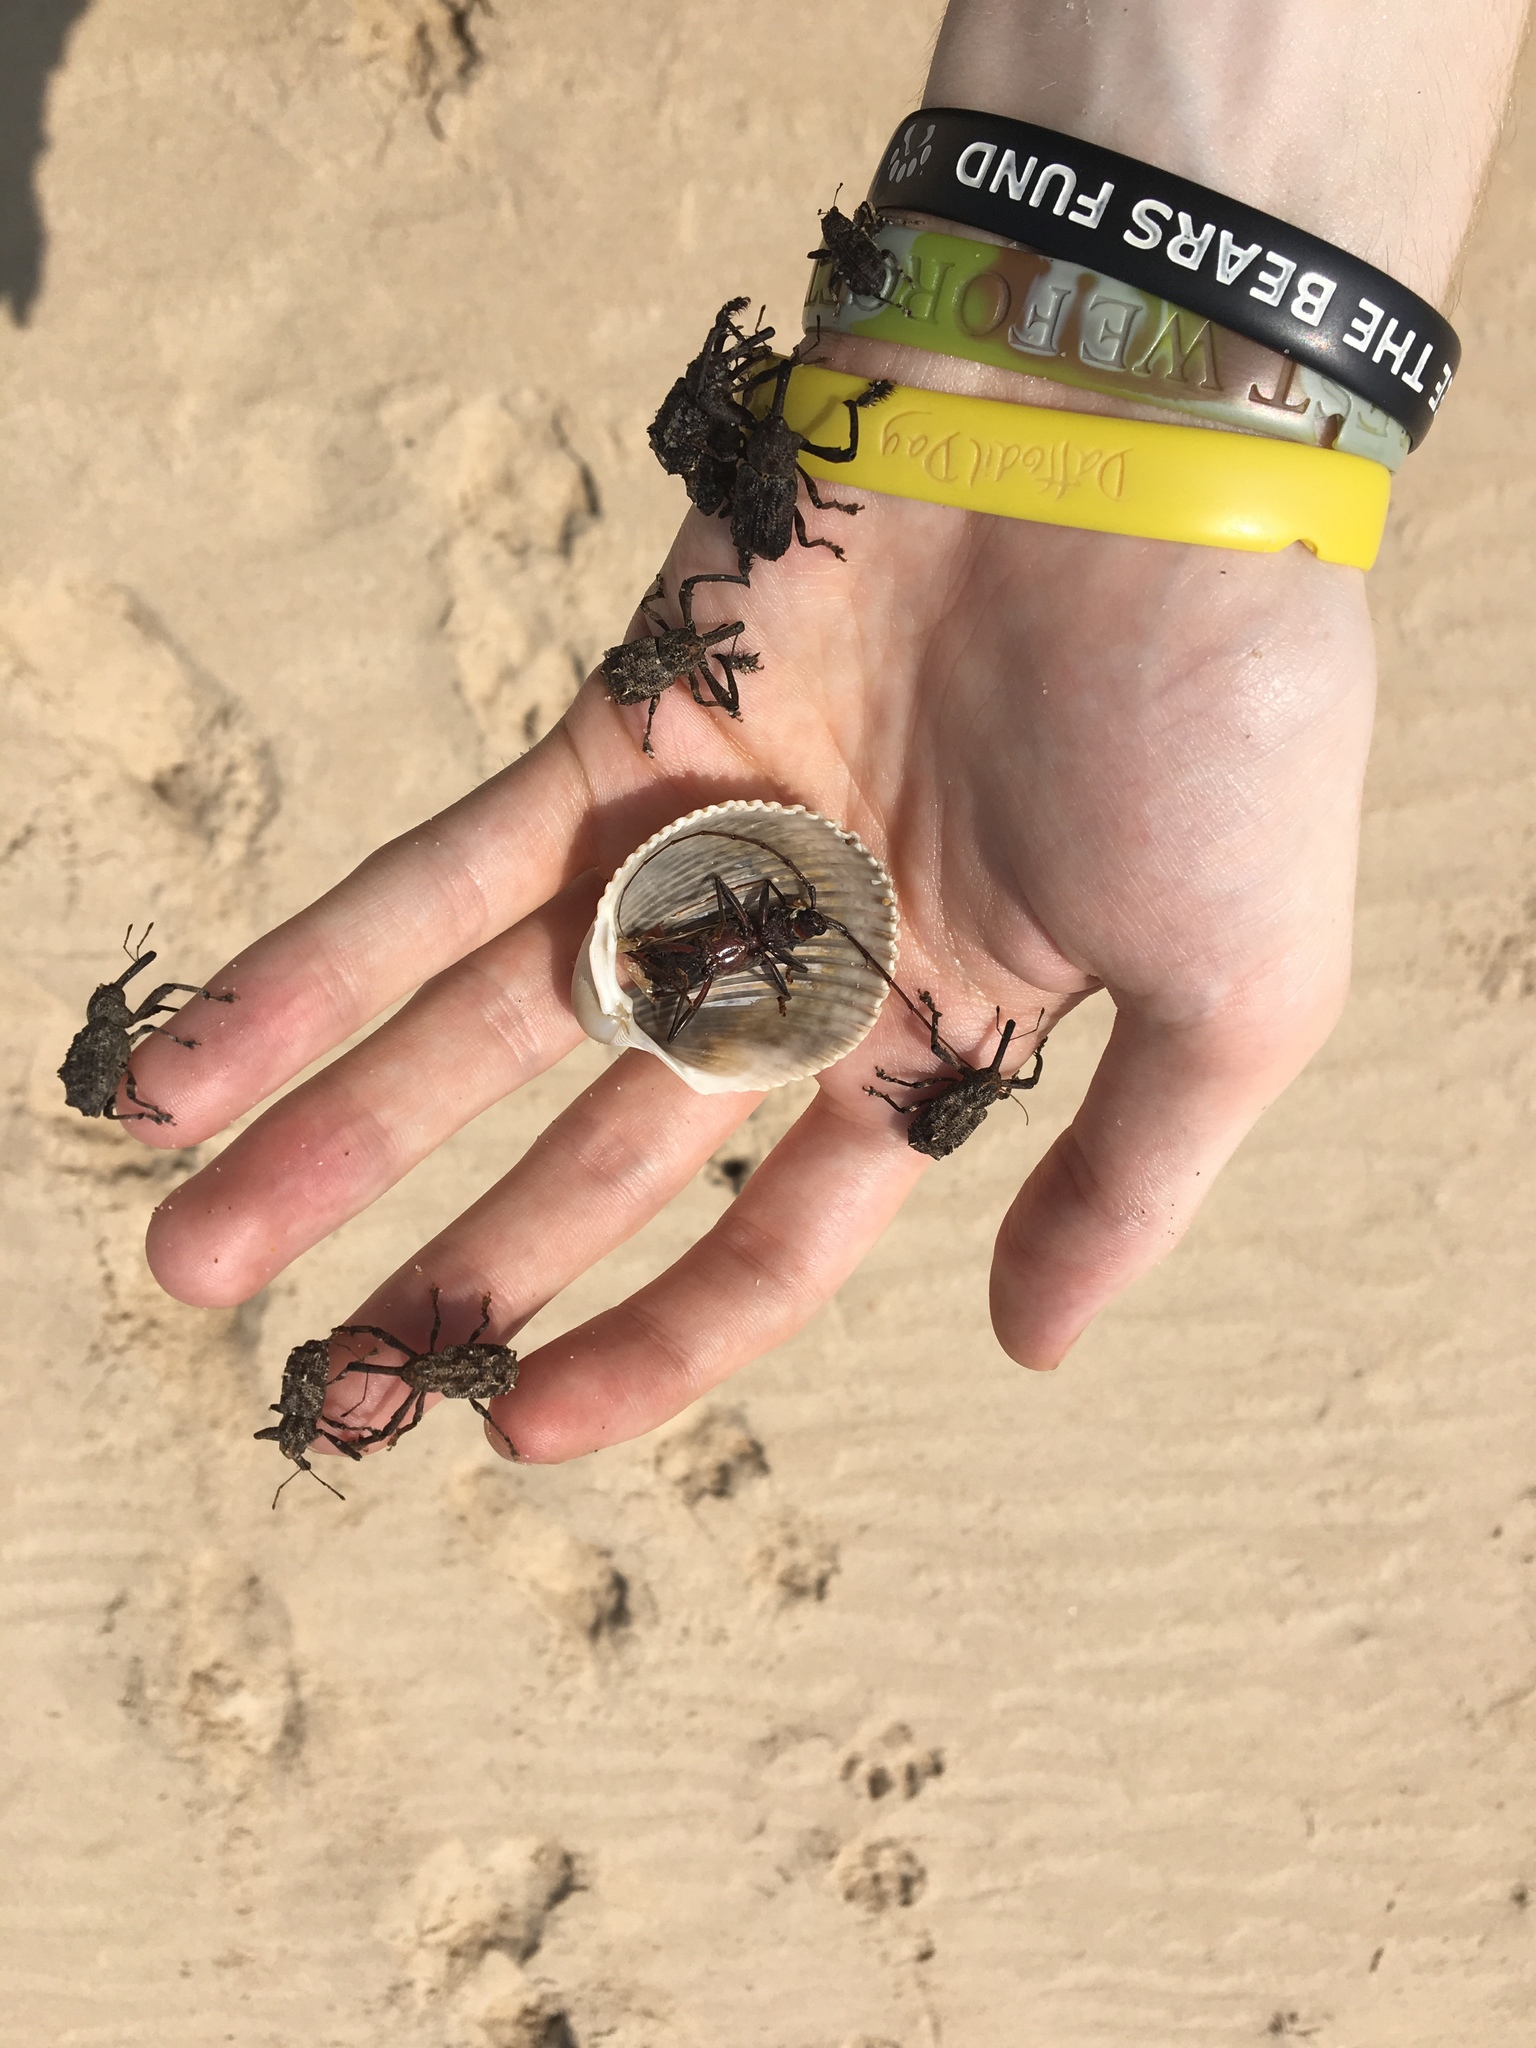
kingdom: Animalia
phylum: Arthropoda
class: Insecta
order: Coleoptera
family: Curculionidae
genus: Orthorhinus
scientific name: Orthorhinus cylindrirostris
